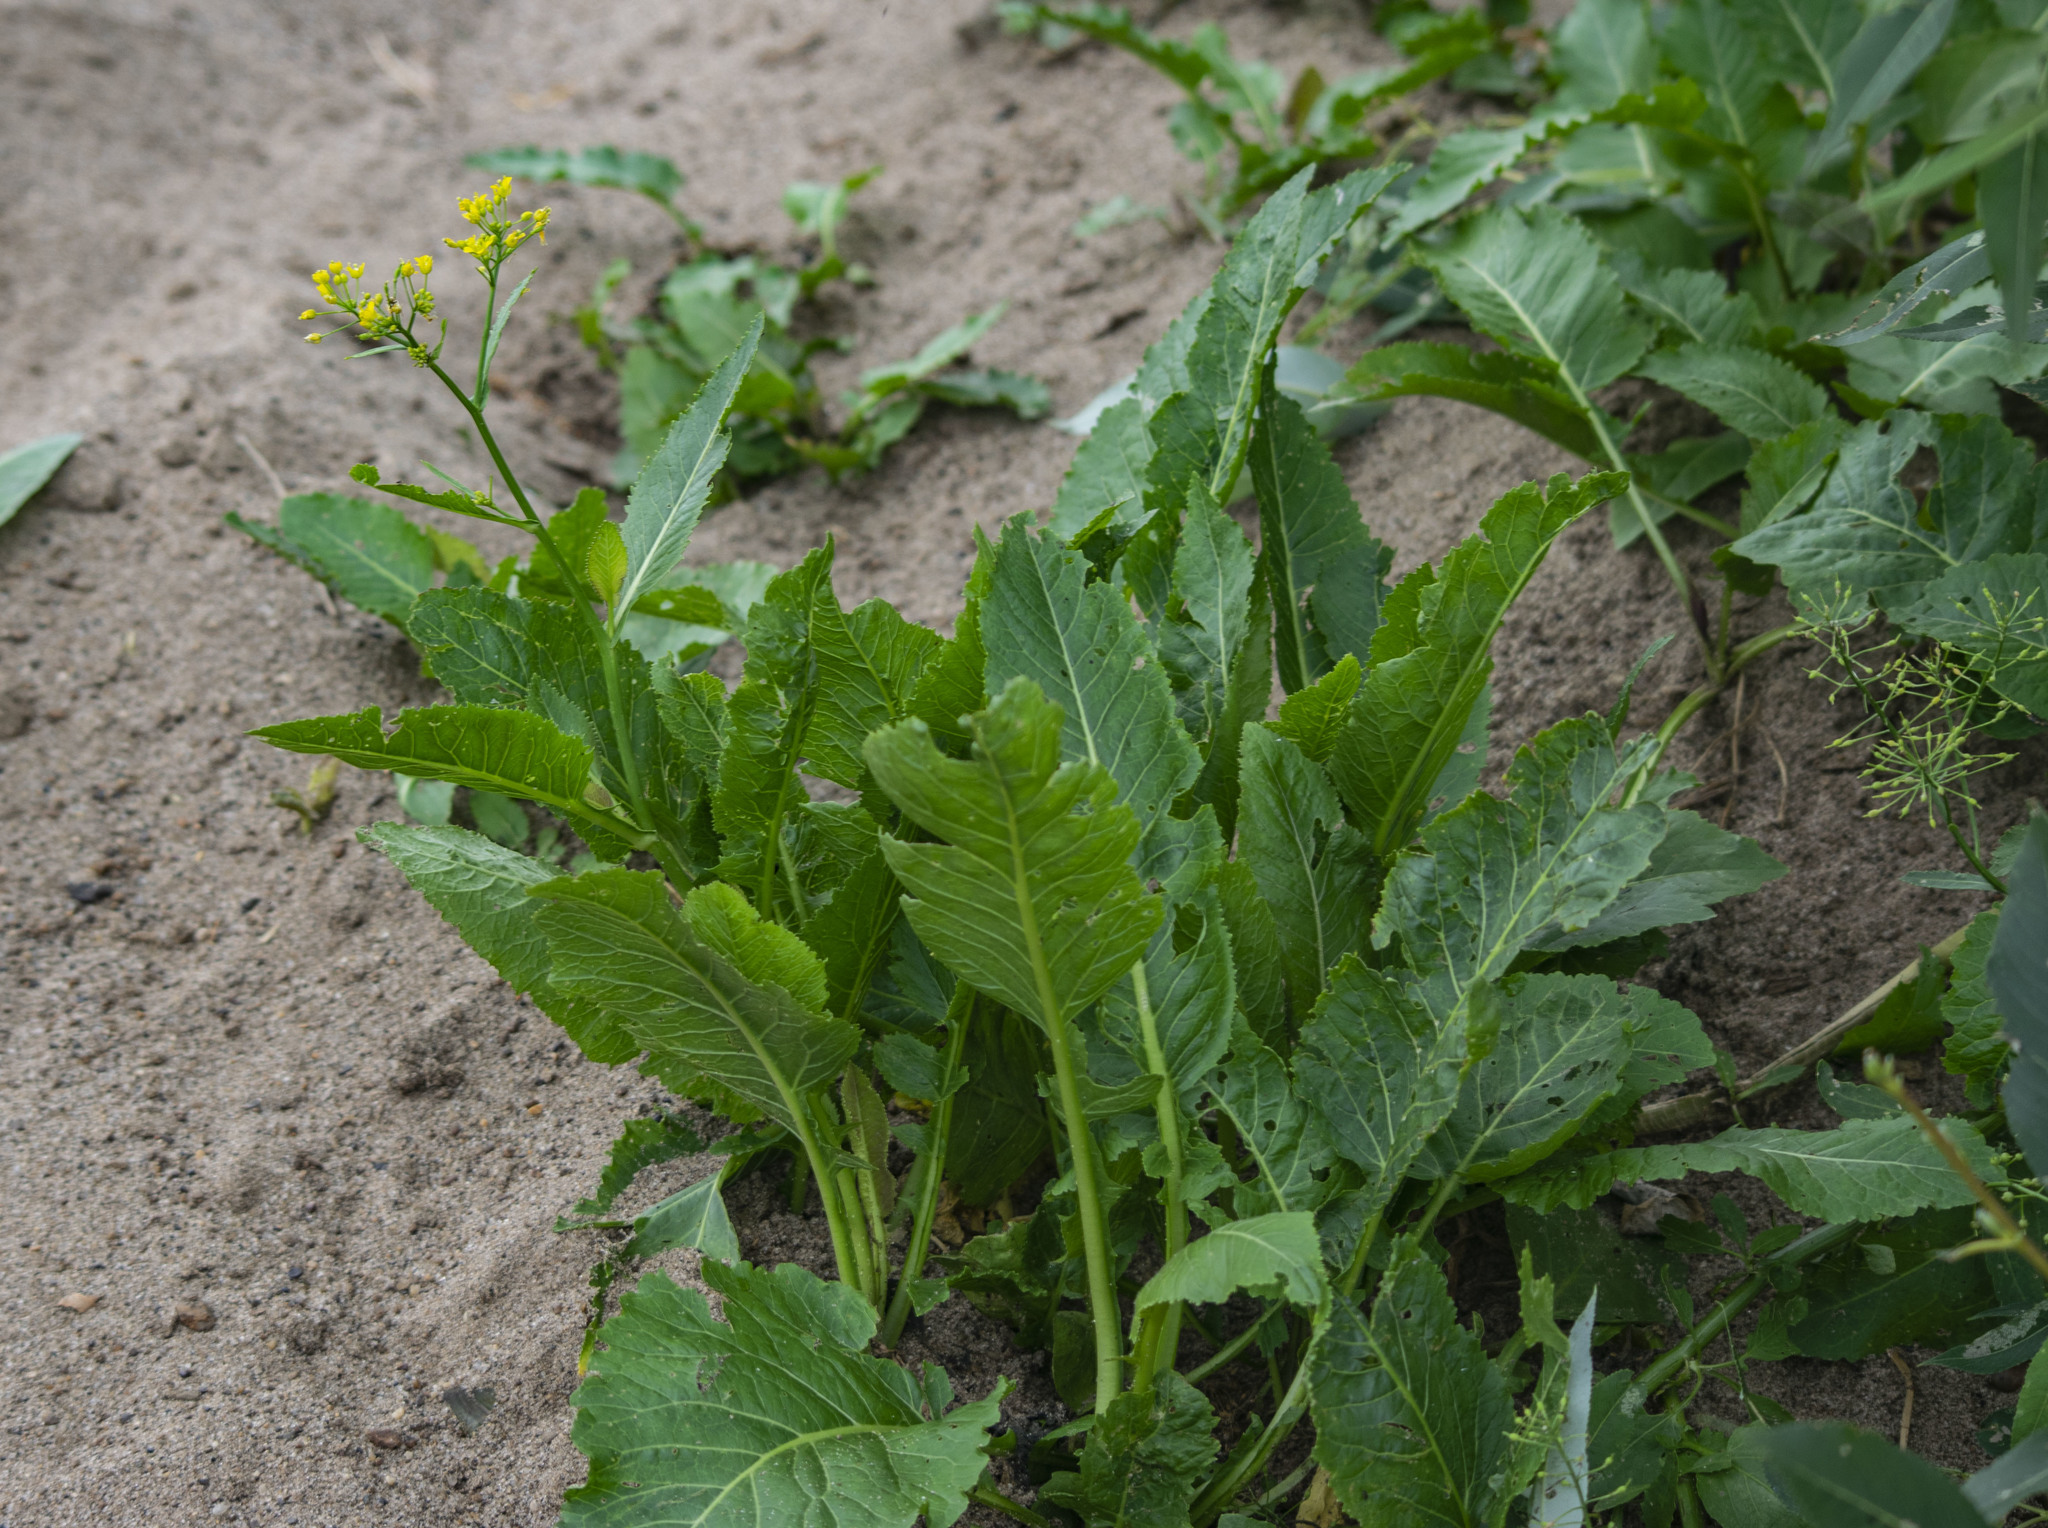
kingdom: Plantae
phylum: Tracheophyta
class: Magnoliopsida
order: Brassicales
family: Brassicaceae
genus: Rorippa
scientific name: Rorippa amphibia
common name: Great yellow-cress
